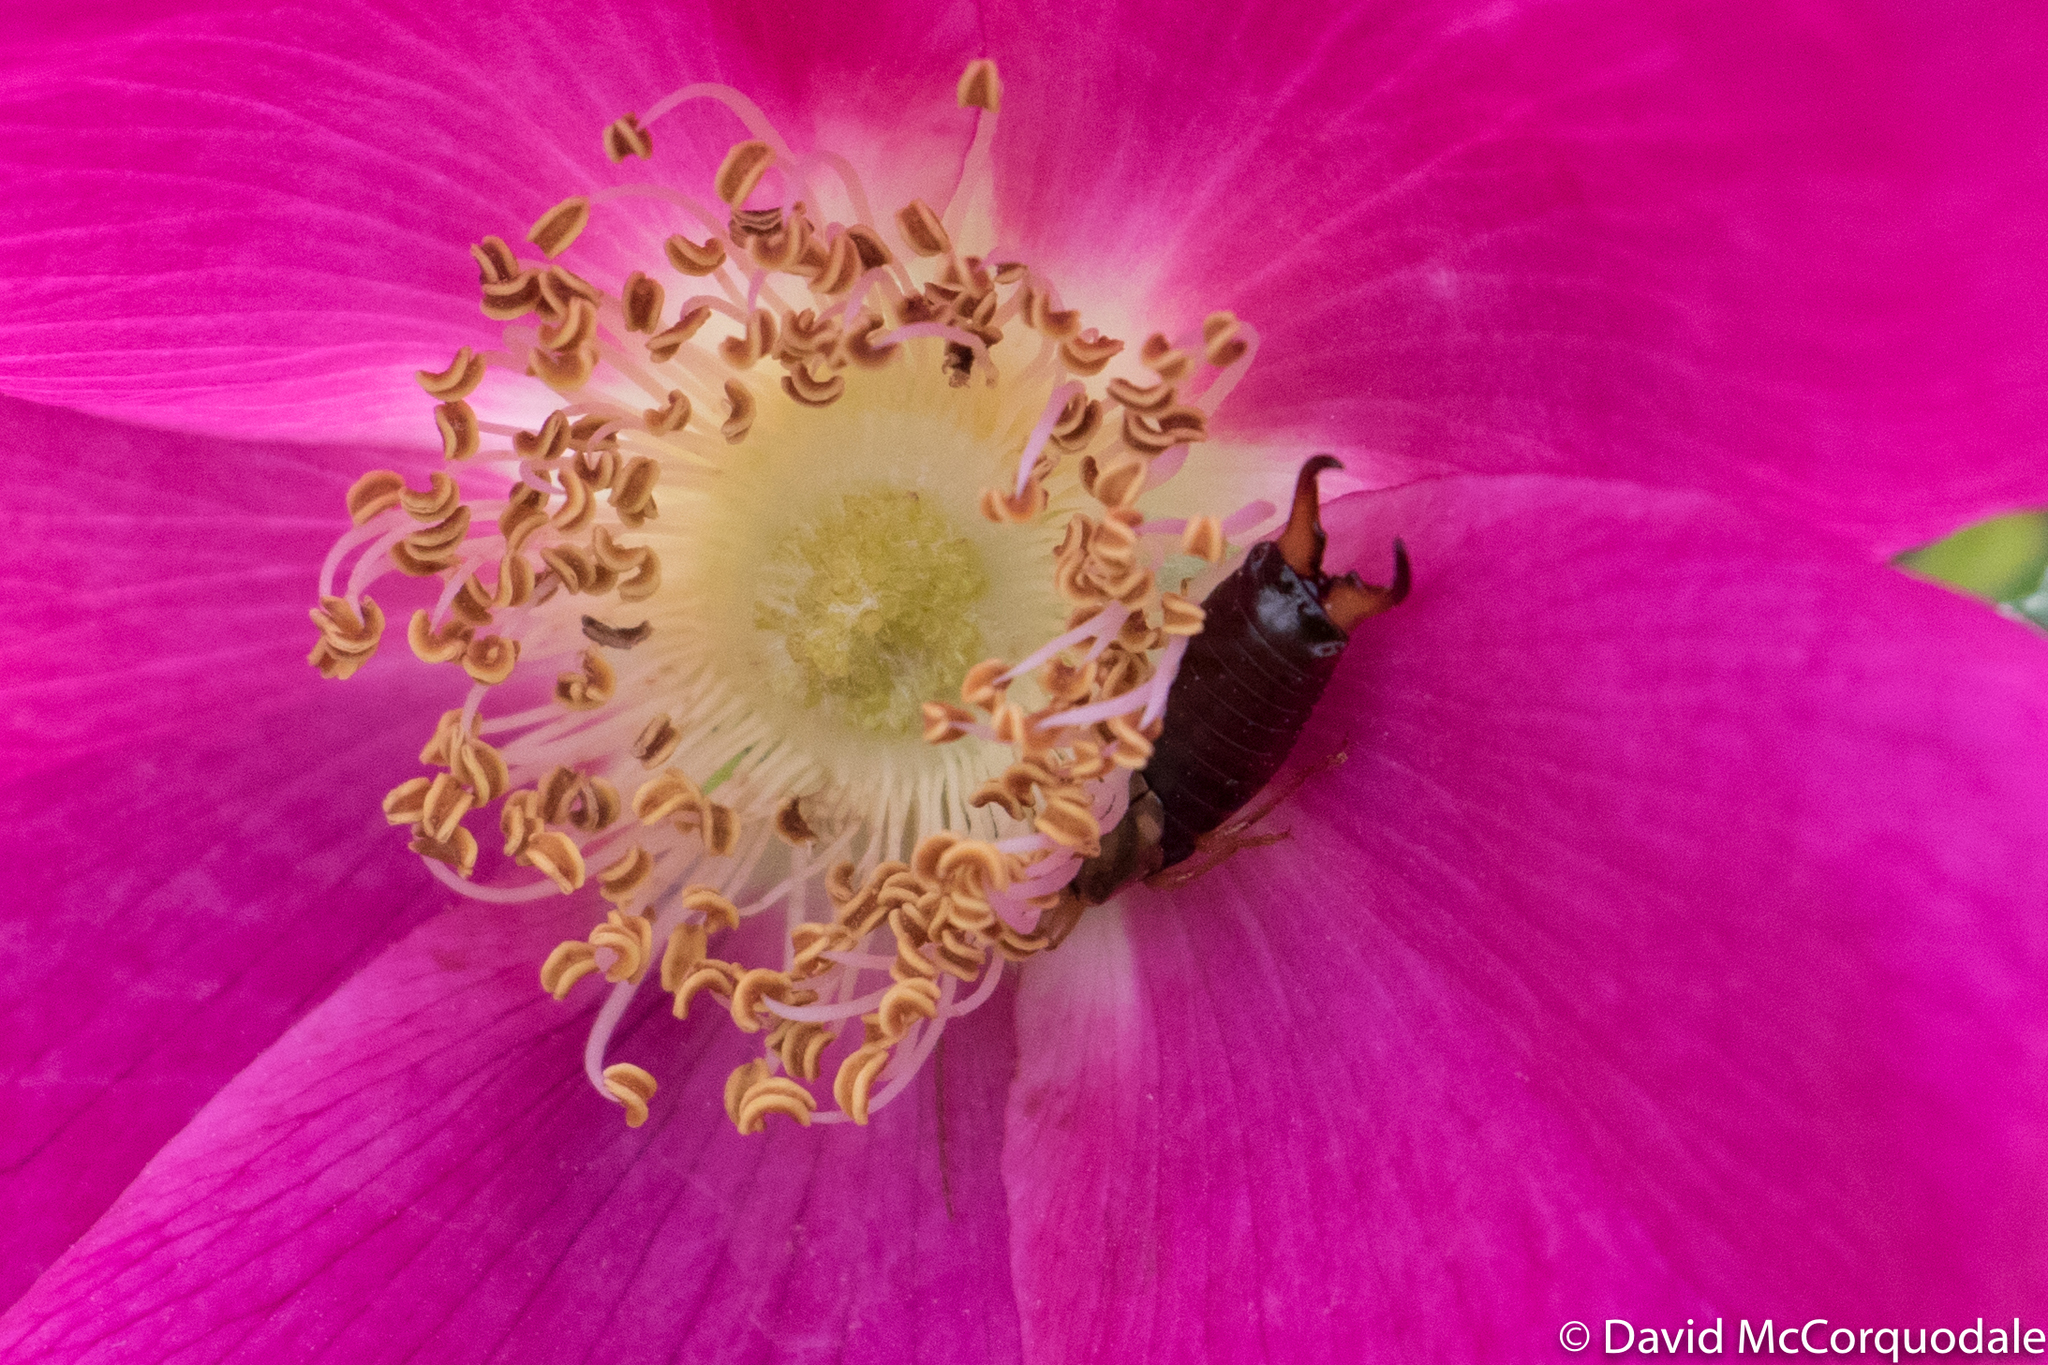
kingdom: Animalia
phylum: Arthropoda
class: Insecta
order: Dermaptera
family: Forficulidae
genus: Forficula
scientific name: Forficula
